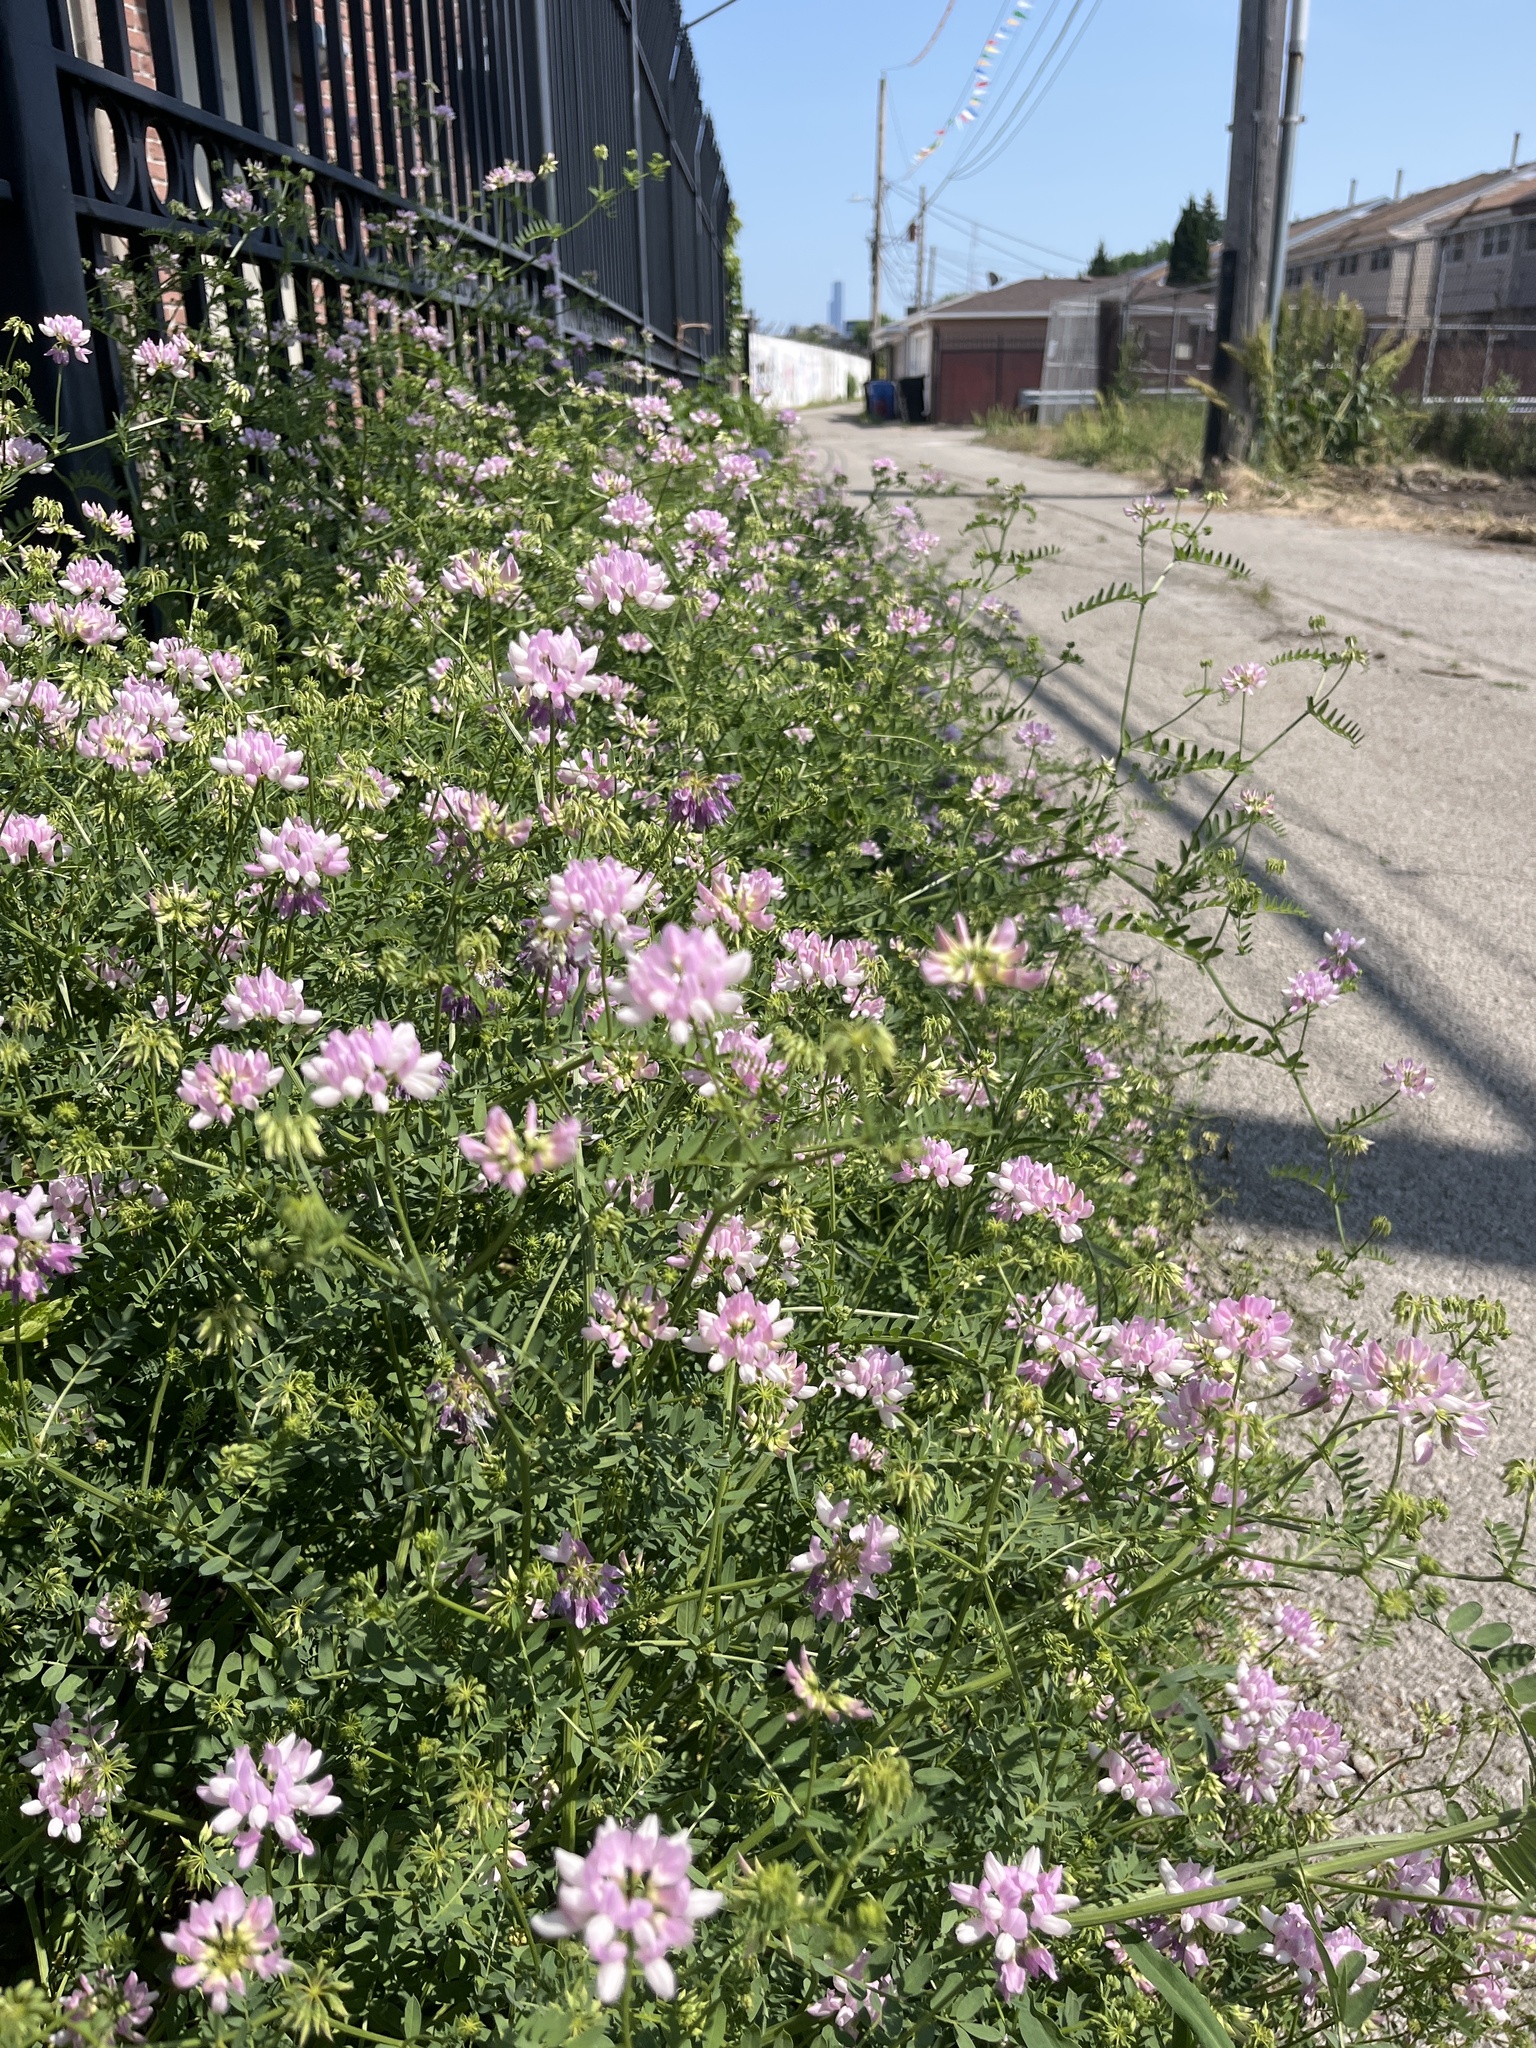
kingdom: Plantae
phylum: Tracheophyta
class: Magnoliopsida
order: Fabales
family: Fabaceae
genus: Coronilla
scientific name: Coronilla varia
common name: Crownvetch
